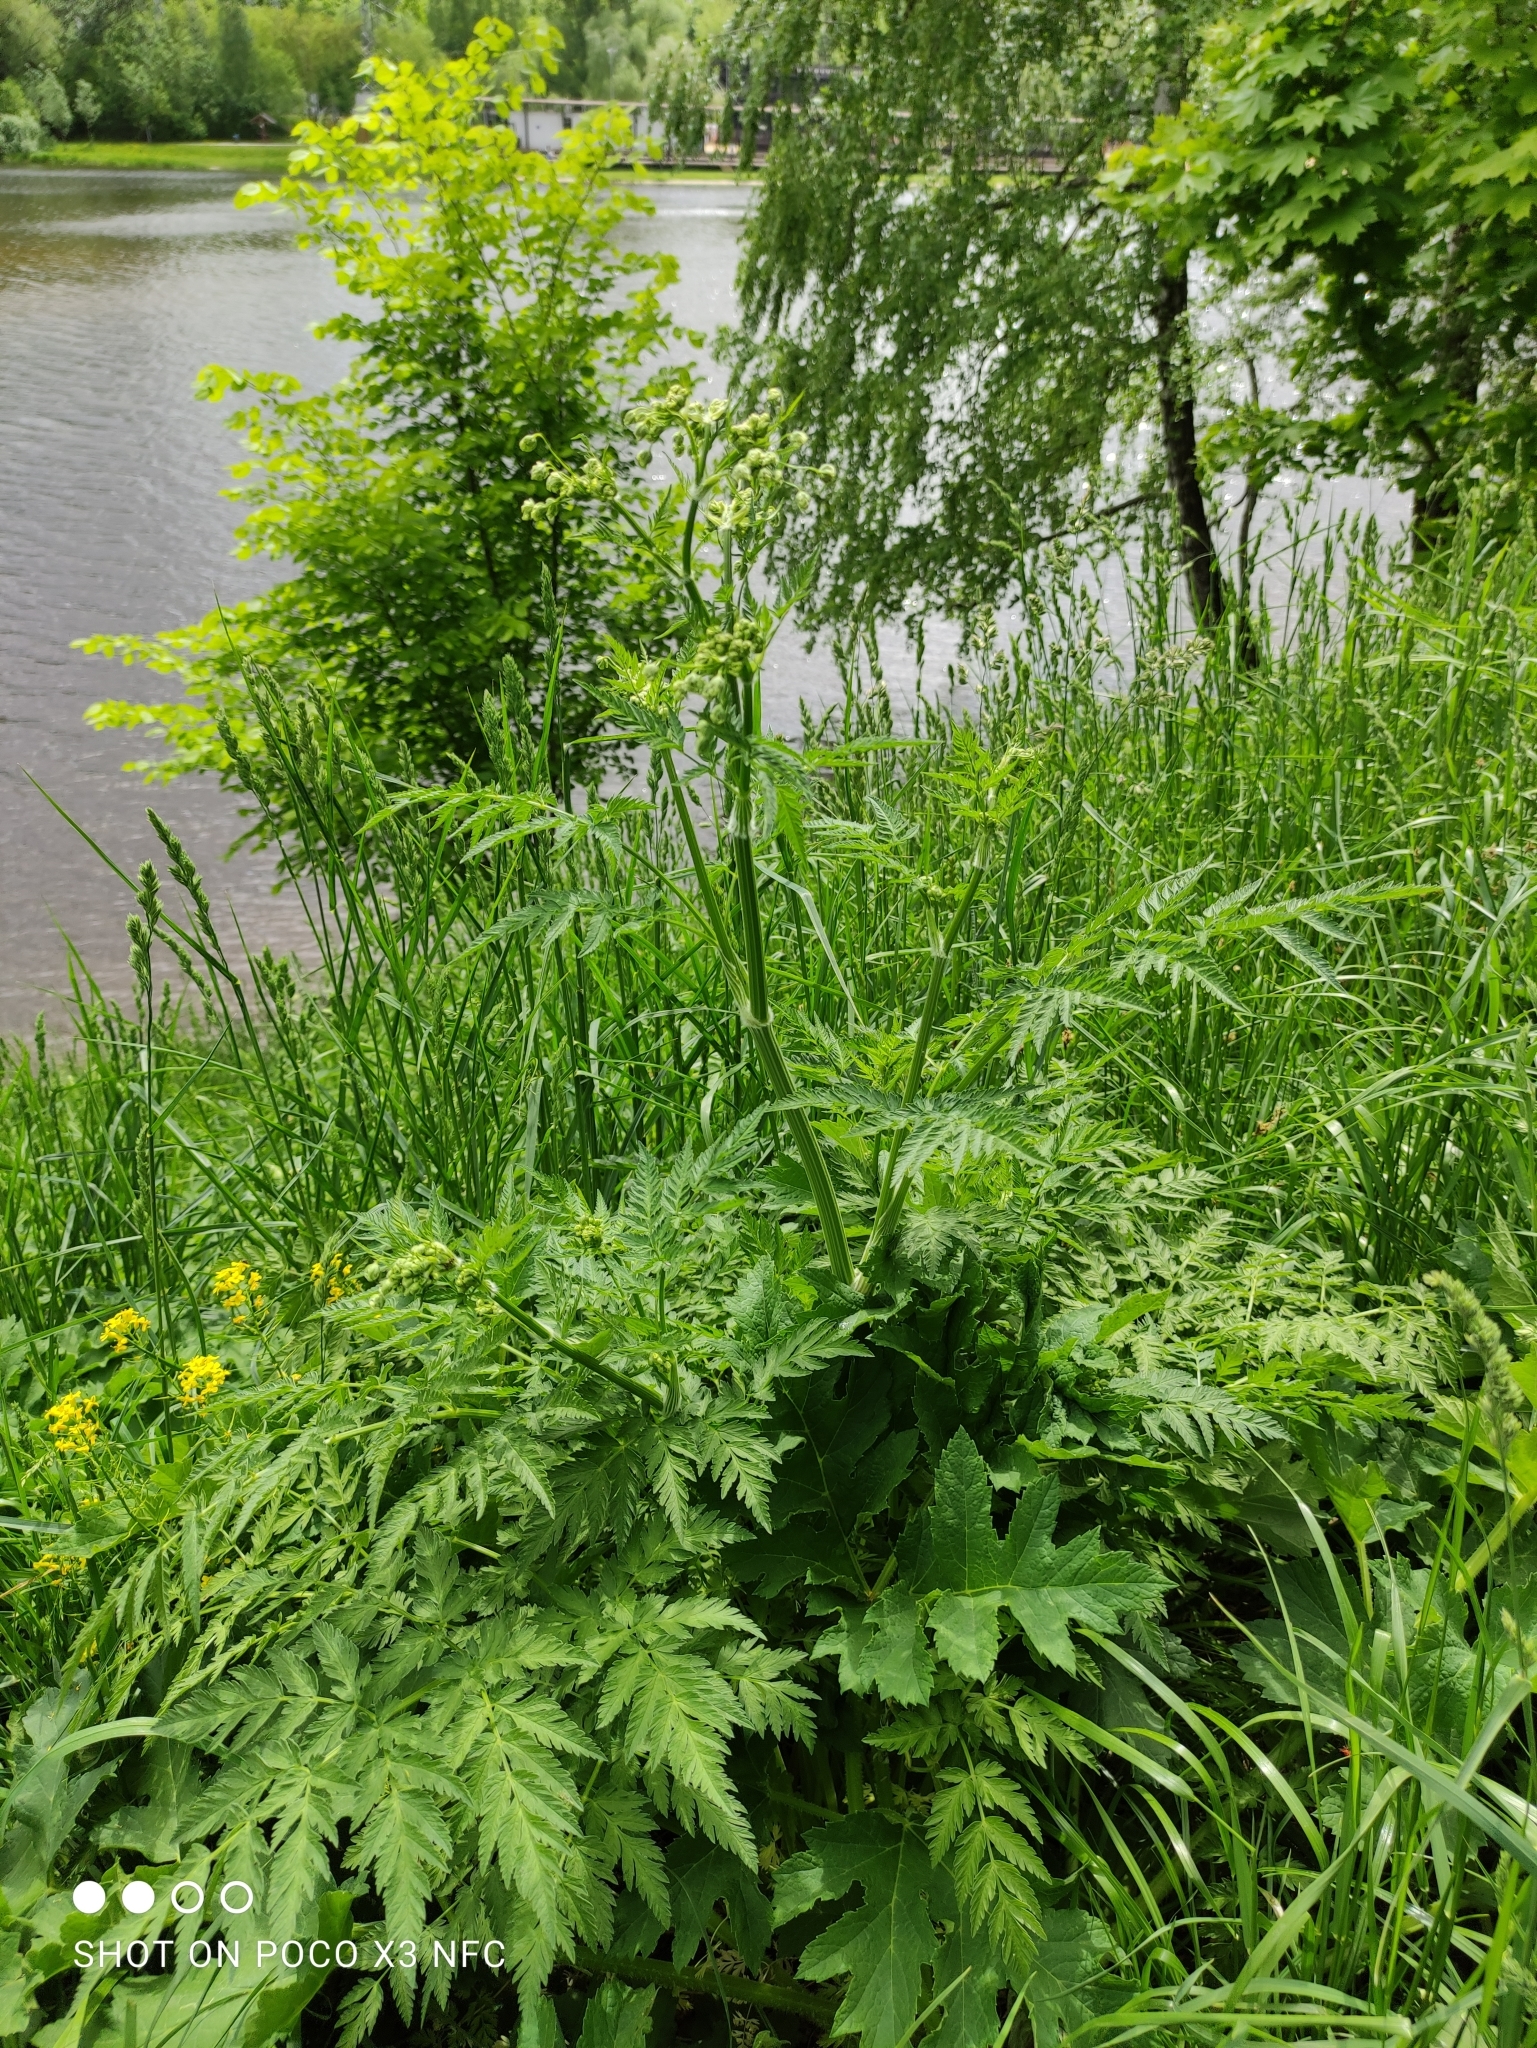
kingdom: Plantae
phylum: Tracheophyta
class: Magnoliopsida
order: Apiales
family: Apiaceae
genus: Anthriscus
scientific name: Anthriscus sylvestris
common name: Cow parsley
